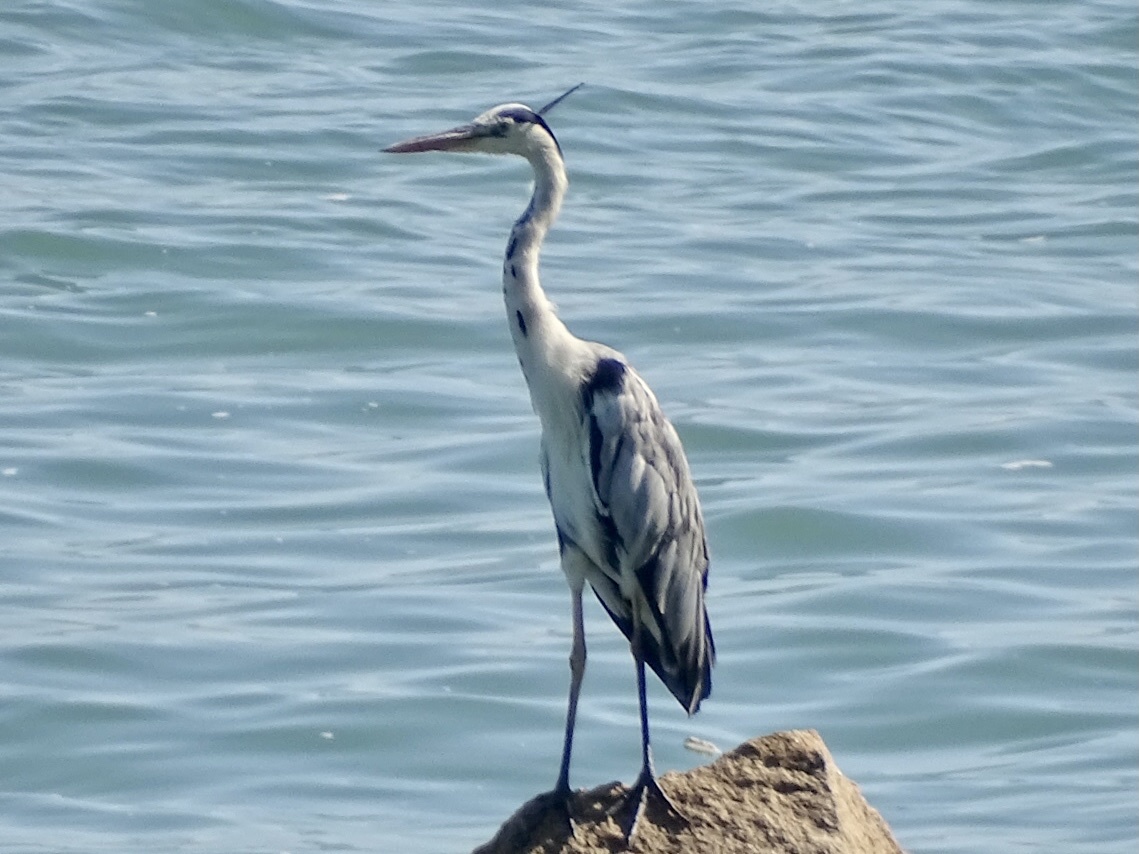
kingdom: Animalia
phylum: Chordata
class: Aves
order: Pelecaniformes
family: Ardeidae
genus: Ardea
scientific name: Ardea cinerea
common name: Grey heron
